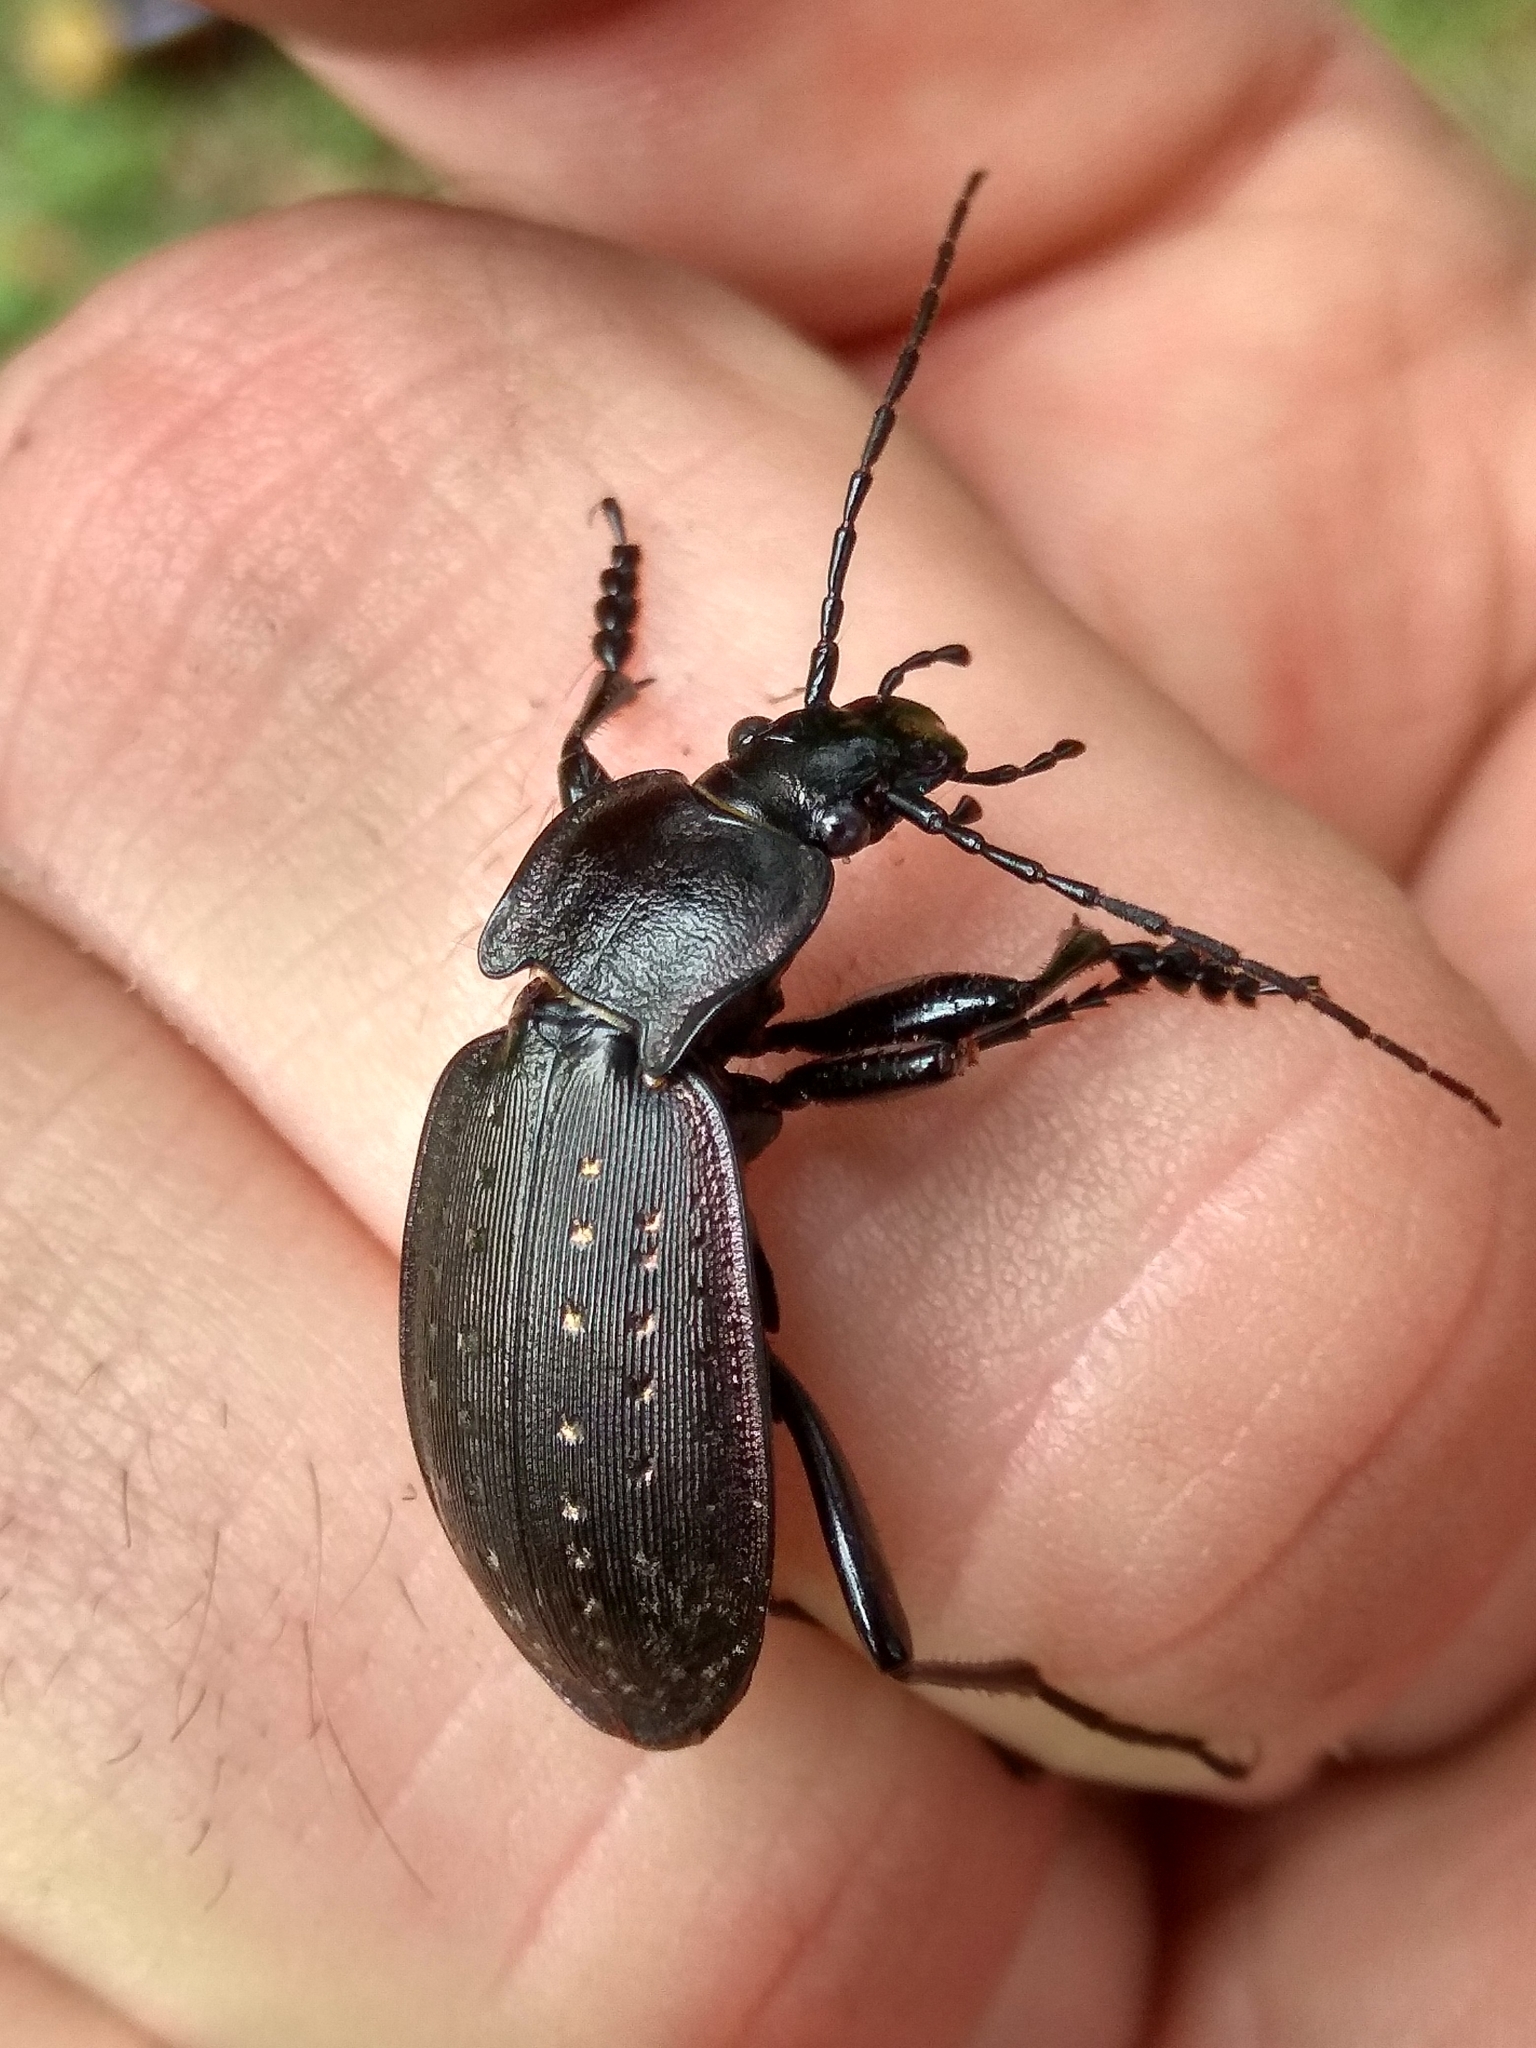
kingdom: Animalia
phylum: Arthropoda
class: Insecta
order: Coleoptera
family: Carabidae
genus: Carabus
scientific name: Carabus hortensis
